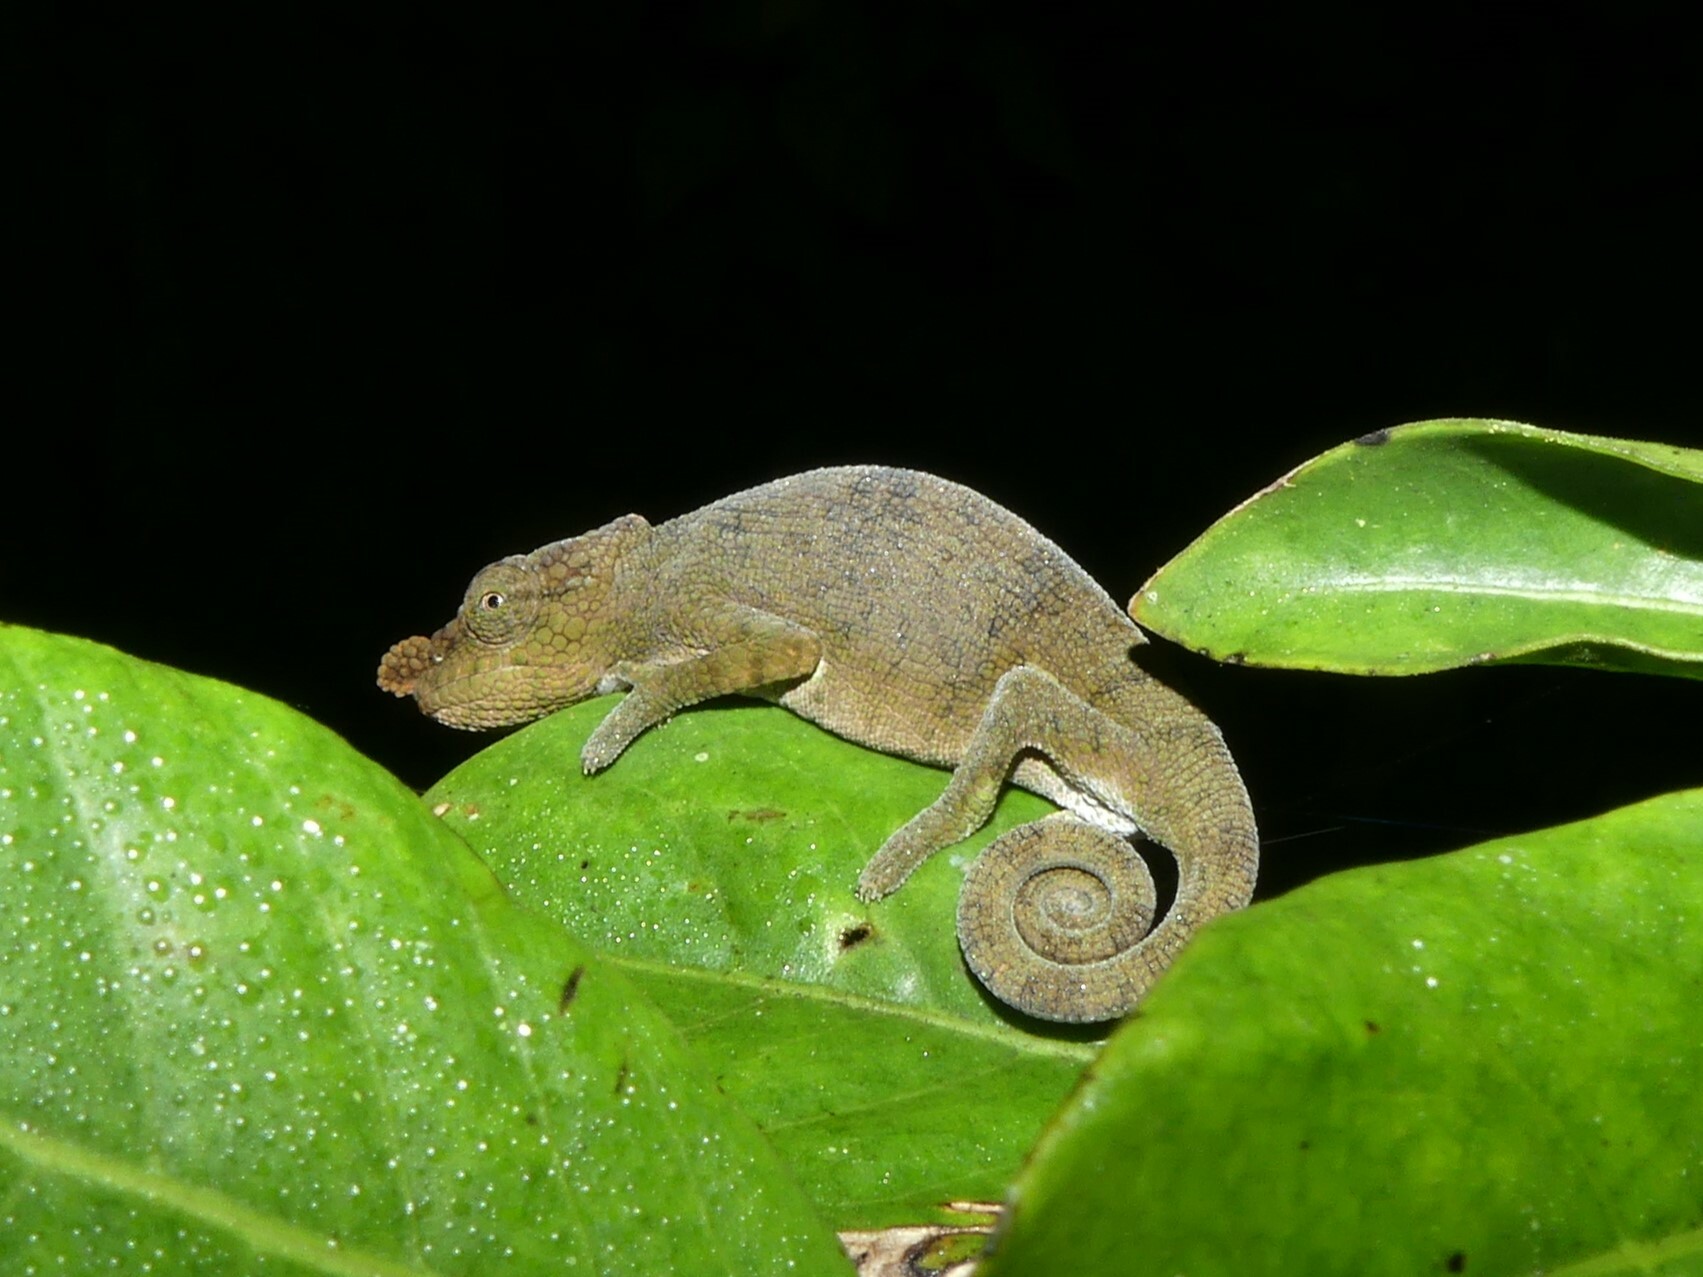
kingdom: Animalia
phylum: Chordata
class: Squamata
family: Chamaeleonidae
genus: Calumma
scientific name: Calumma fallax
